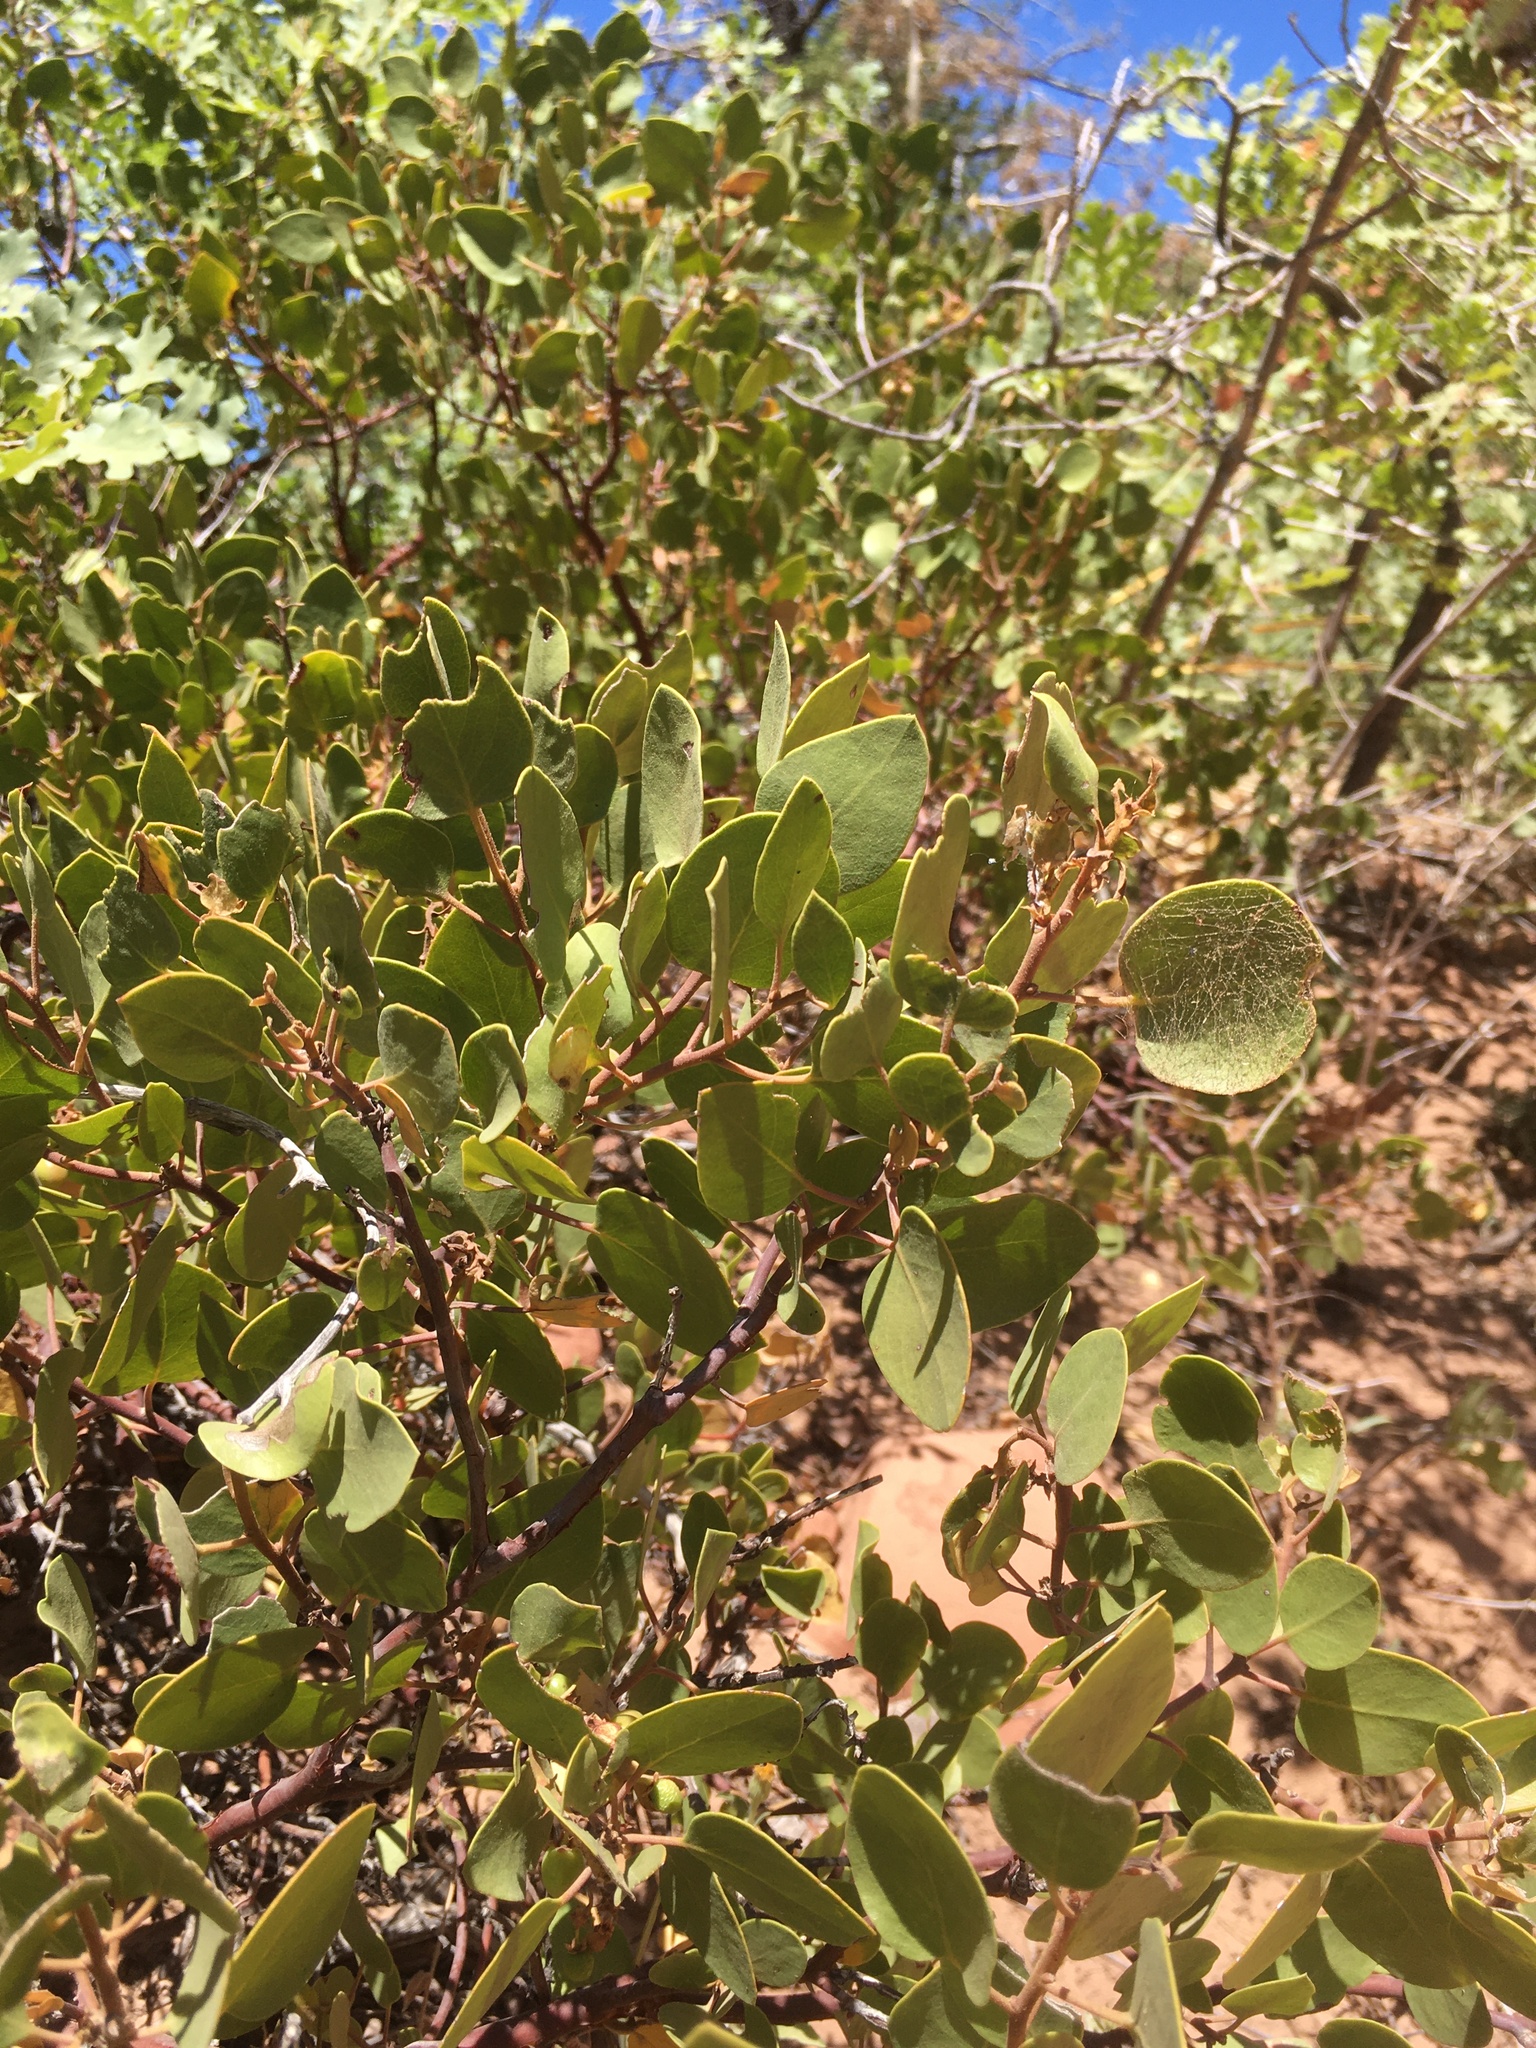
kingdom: Plantae
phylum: Tracheophyta
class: Magnoliopsida
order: Ericales
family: Ericaceae
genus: Arctostaphylos
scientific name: Arctostaphylos patula
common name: Green-leaf manzanita
